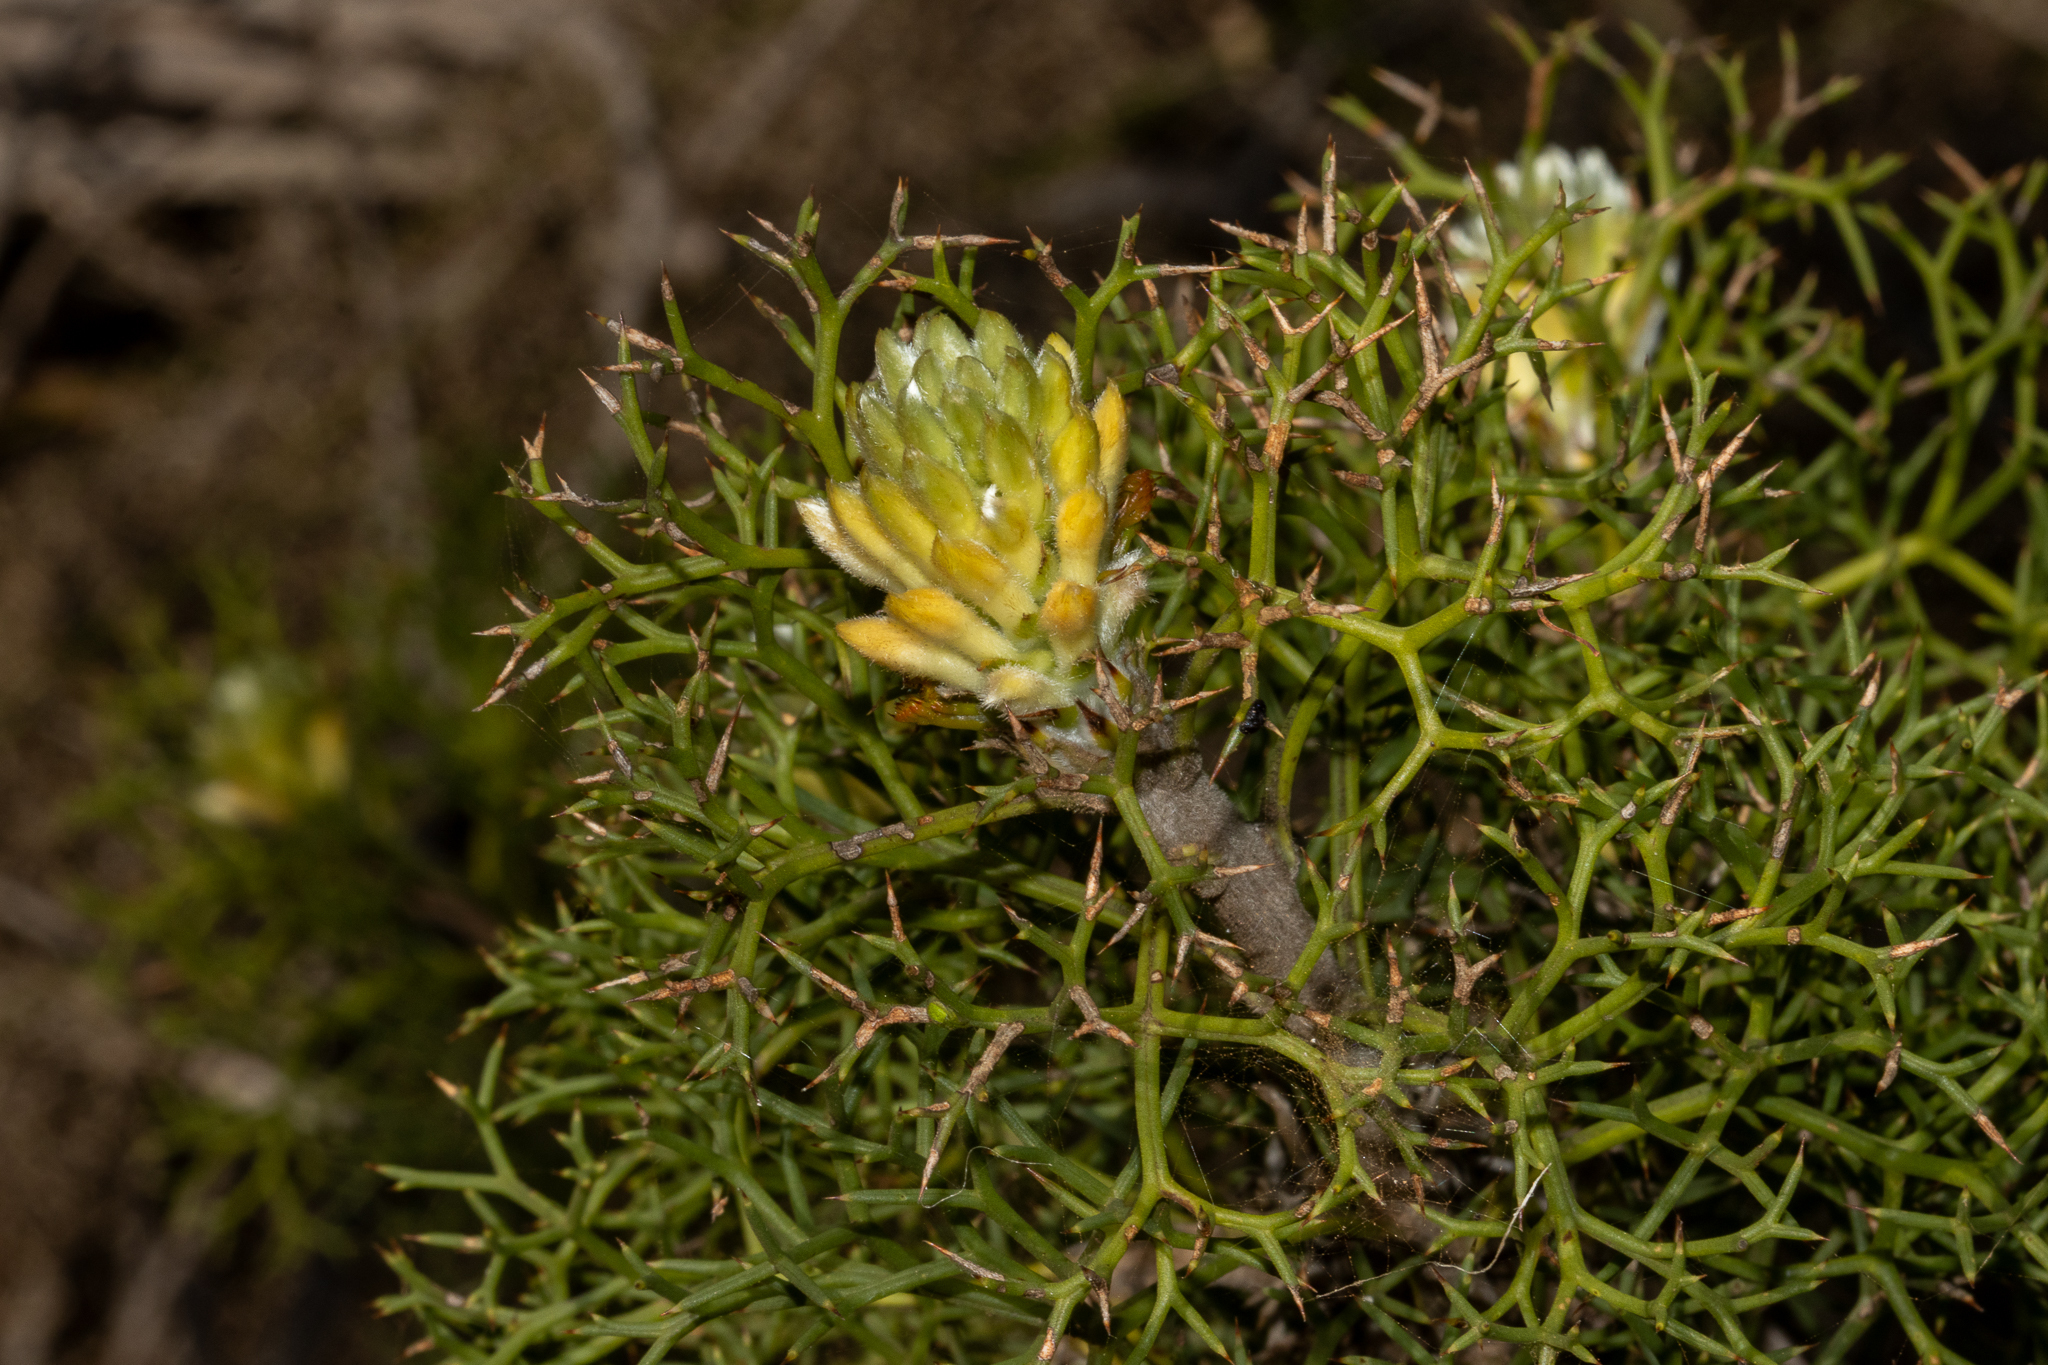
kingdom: Plantae
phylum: Tracheophyta
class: Magnoliopsida
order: Proteales
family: Proteaceae
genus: Petrophile
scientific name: Petrophile multisecta
